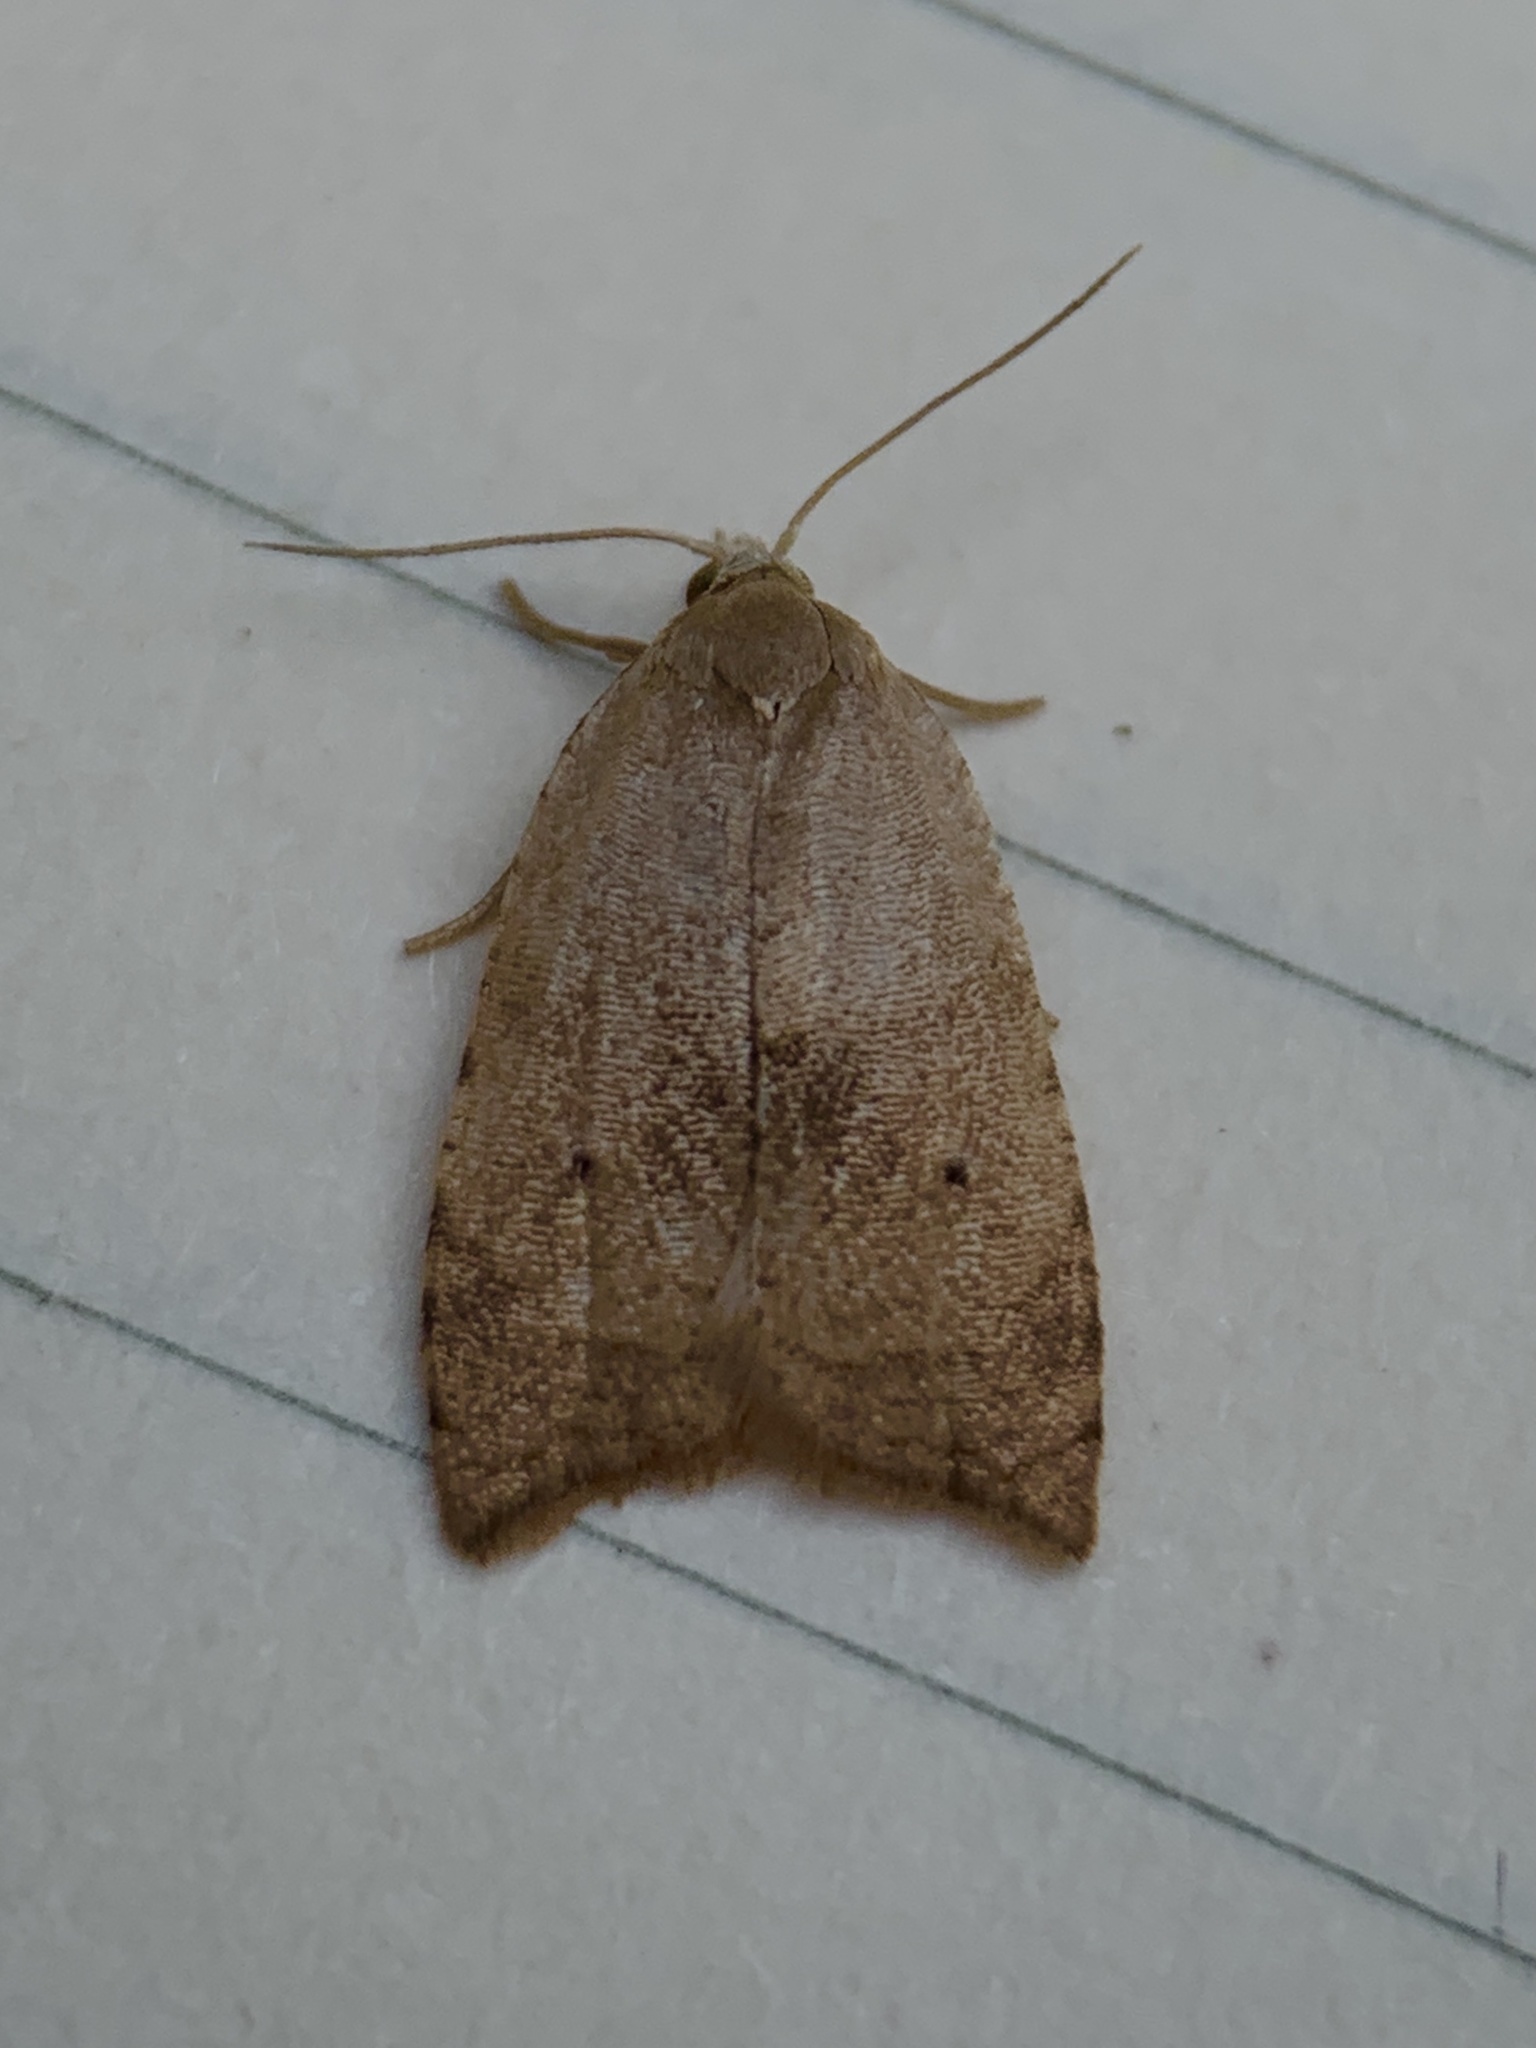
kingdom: Animalia
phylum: Arthropoda
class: Insecta
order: Lepidoptera
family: Tortricidae
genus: Coelostathma
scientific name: Coelostathma discopunctana
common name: Batman moth
